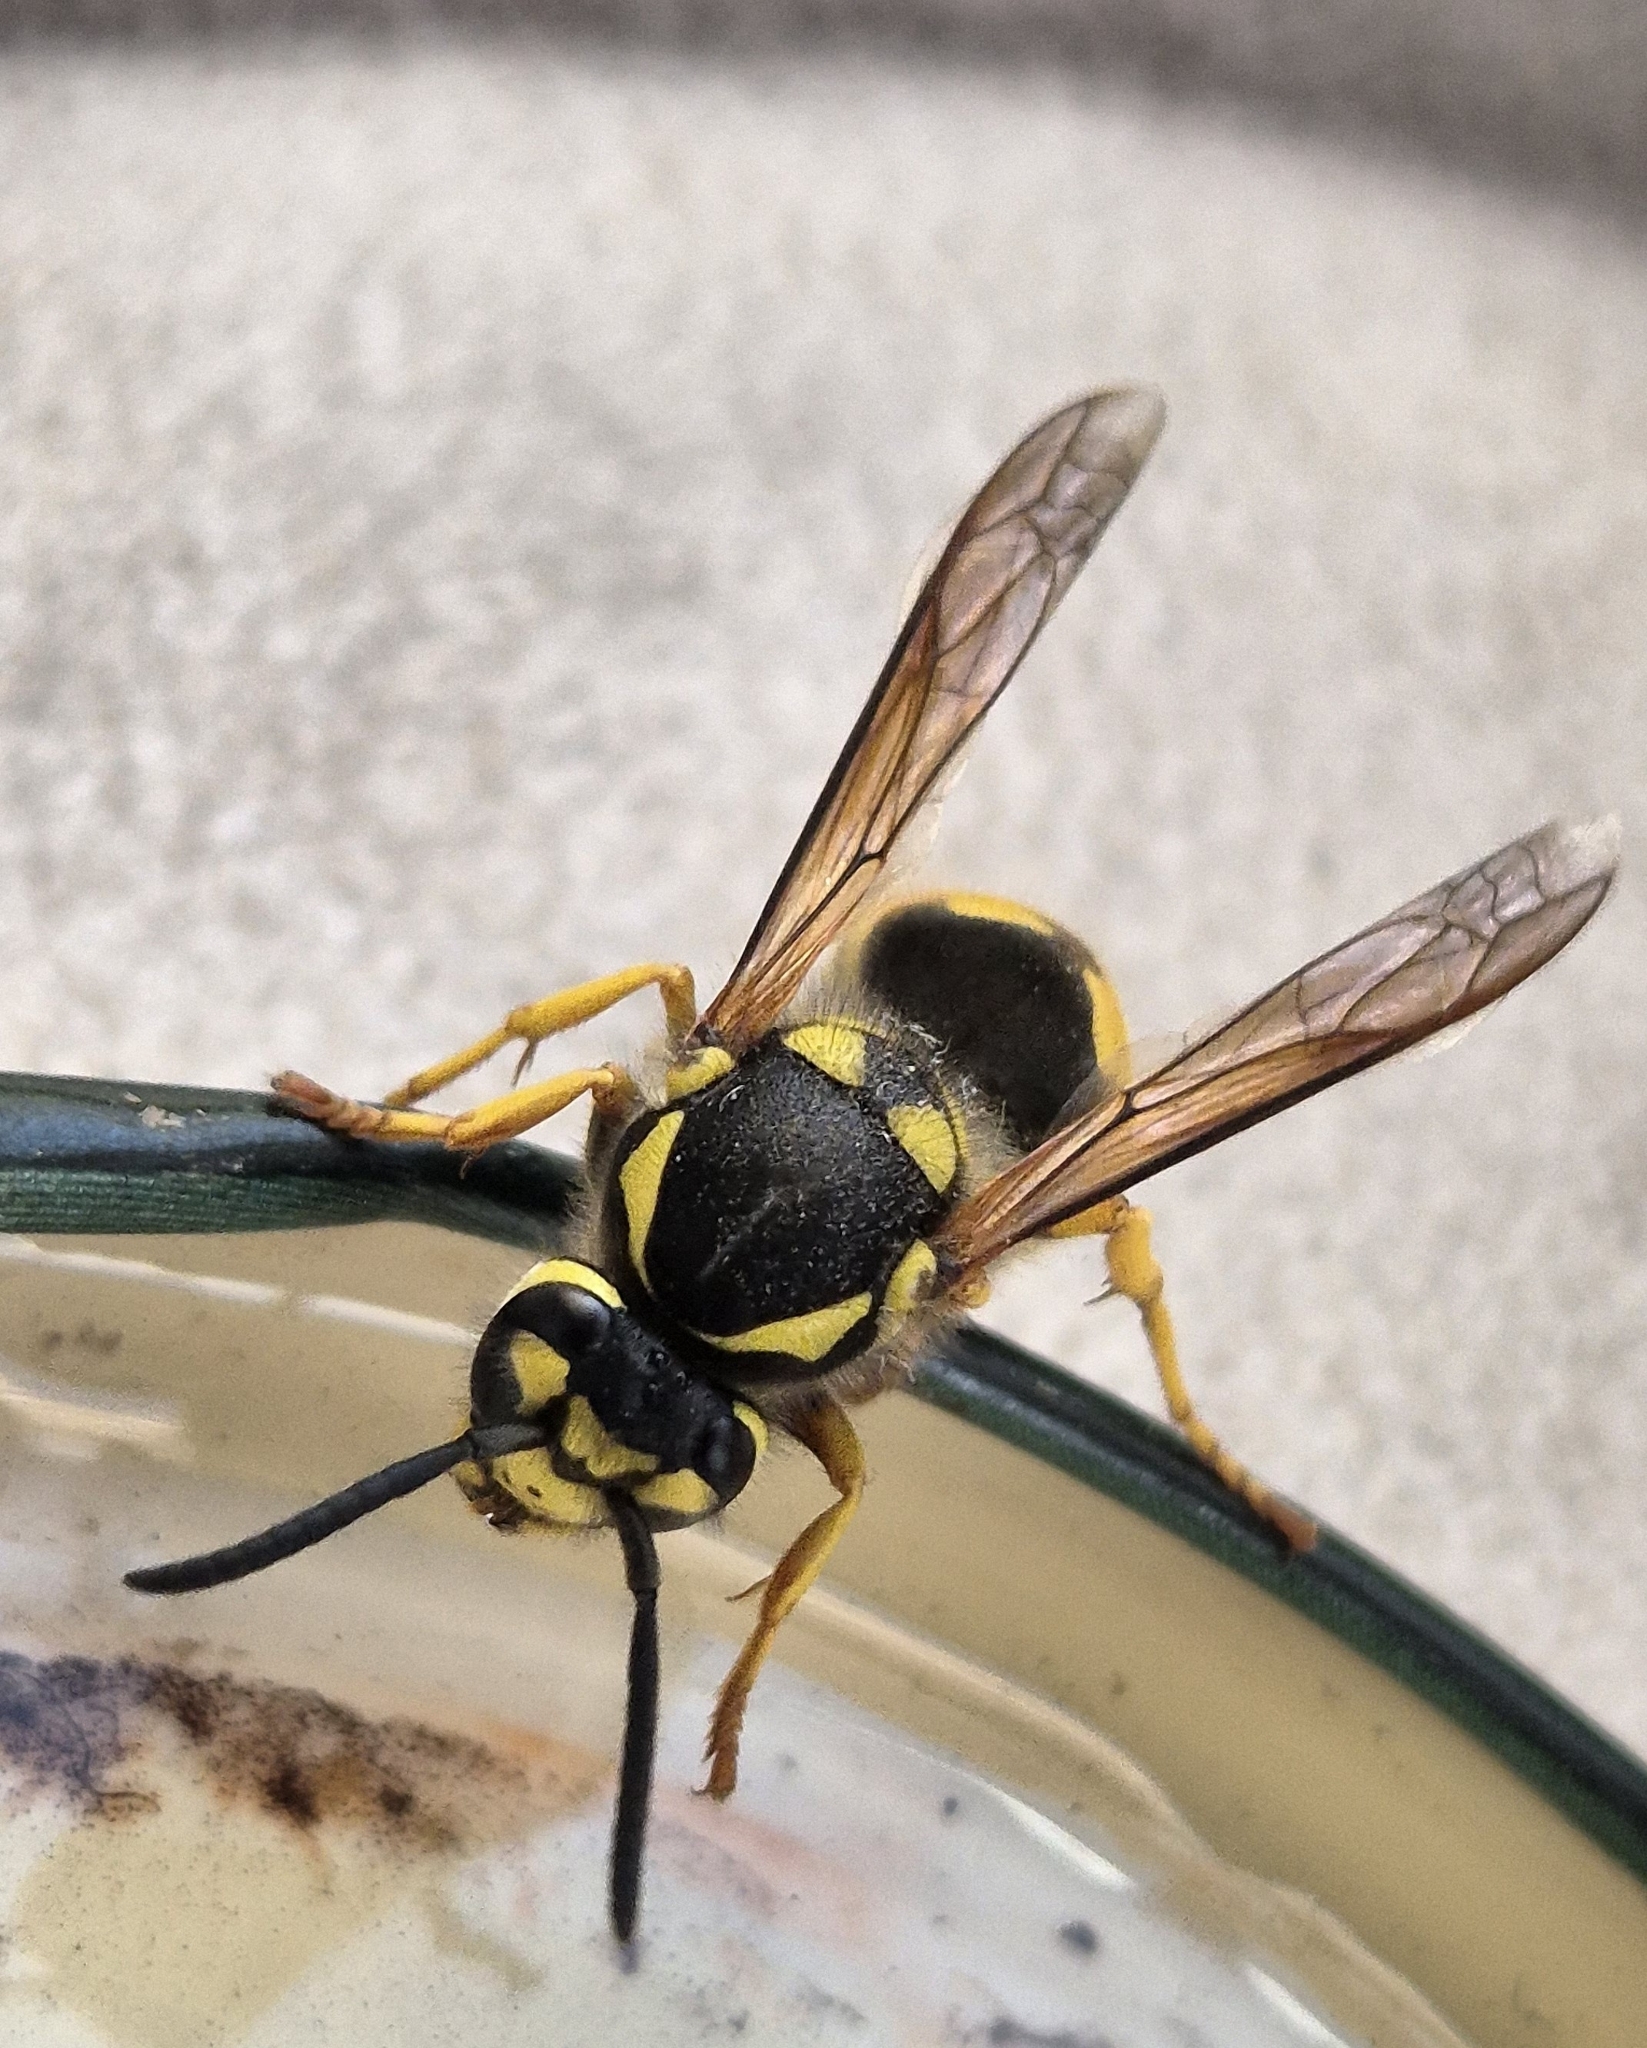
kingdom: Animalia
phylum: Arthropoda
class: Insecta
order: Hymenoptera
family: Vespidae
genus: Vespula
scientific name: Vespula germanica
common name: German wasp
